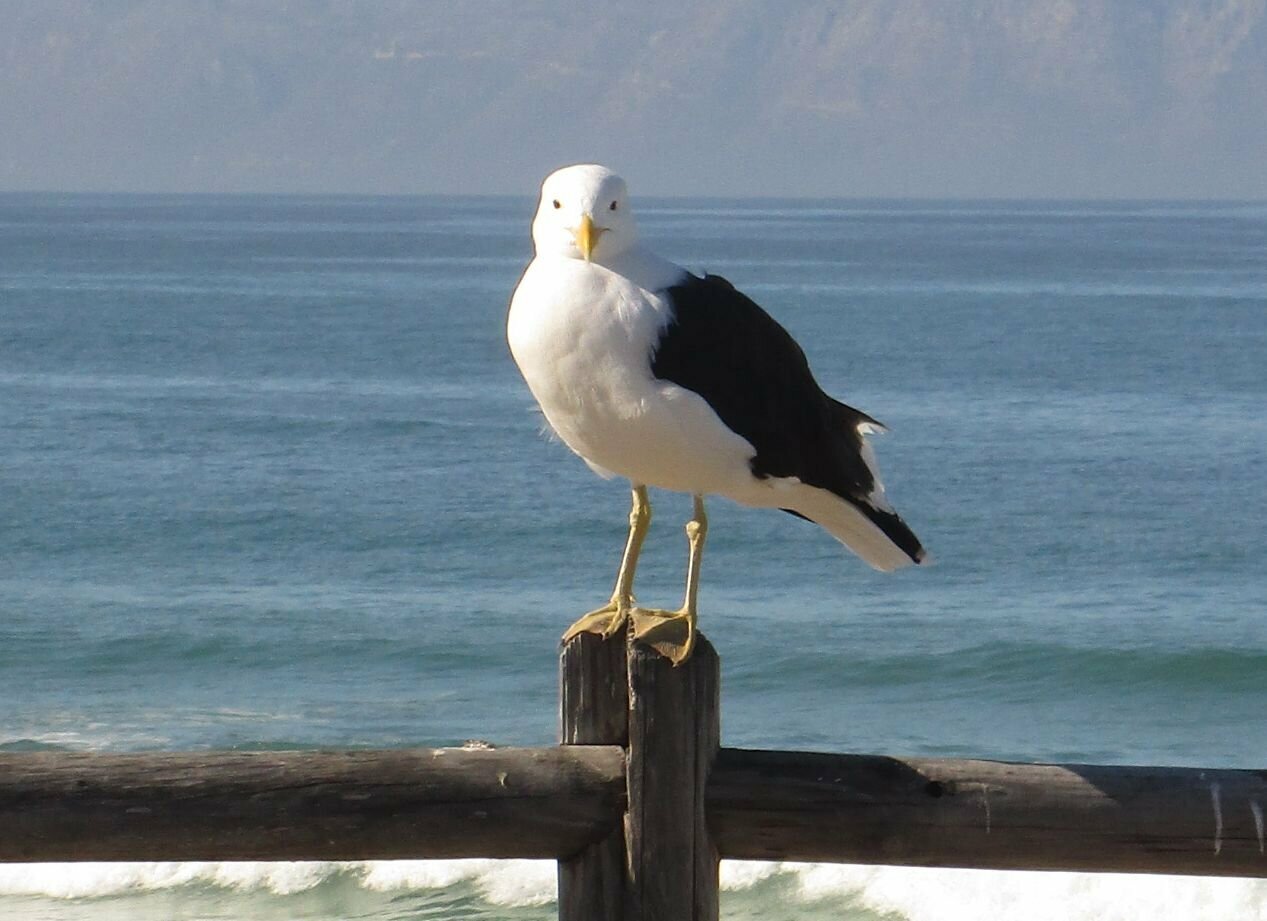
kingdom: Animalia
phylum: Chordata
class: Aves
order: Charadriiformes
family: Laridae
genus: Larus
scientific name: Larus dominicanus
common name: Kelp gull
